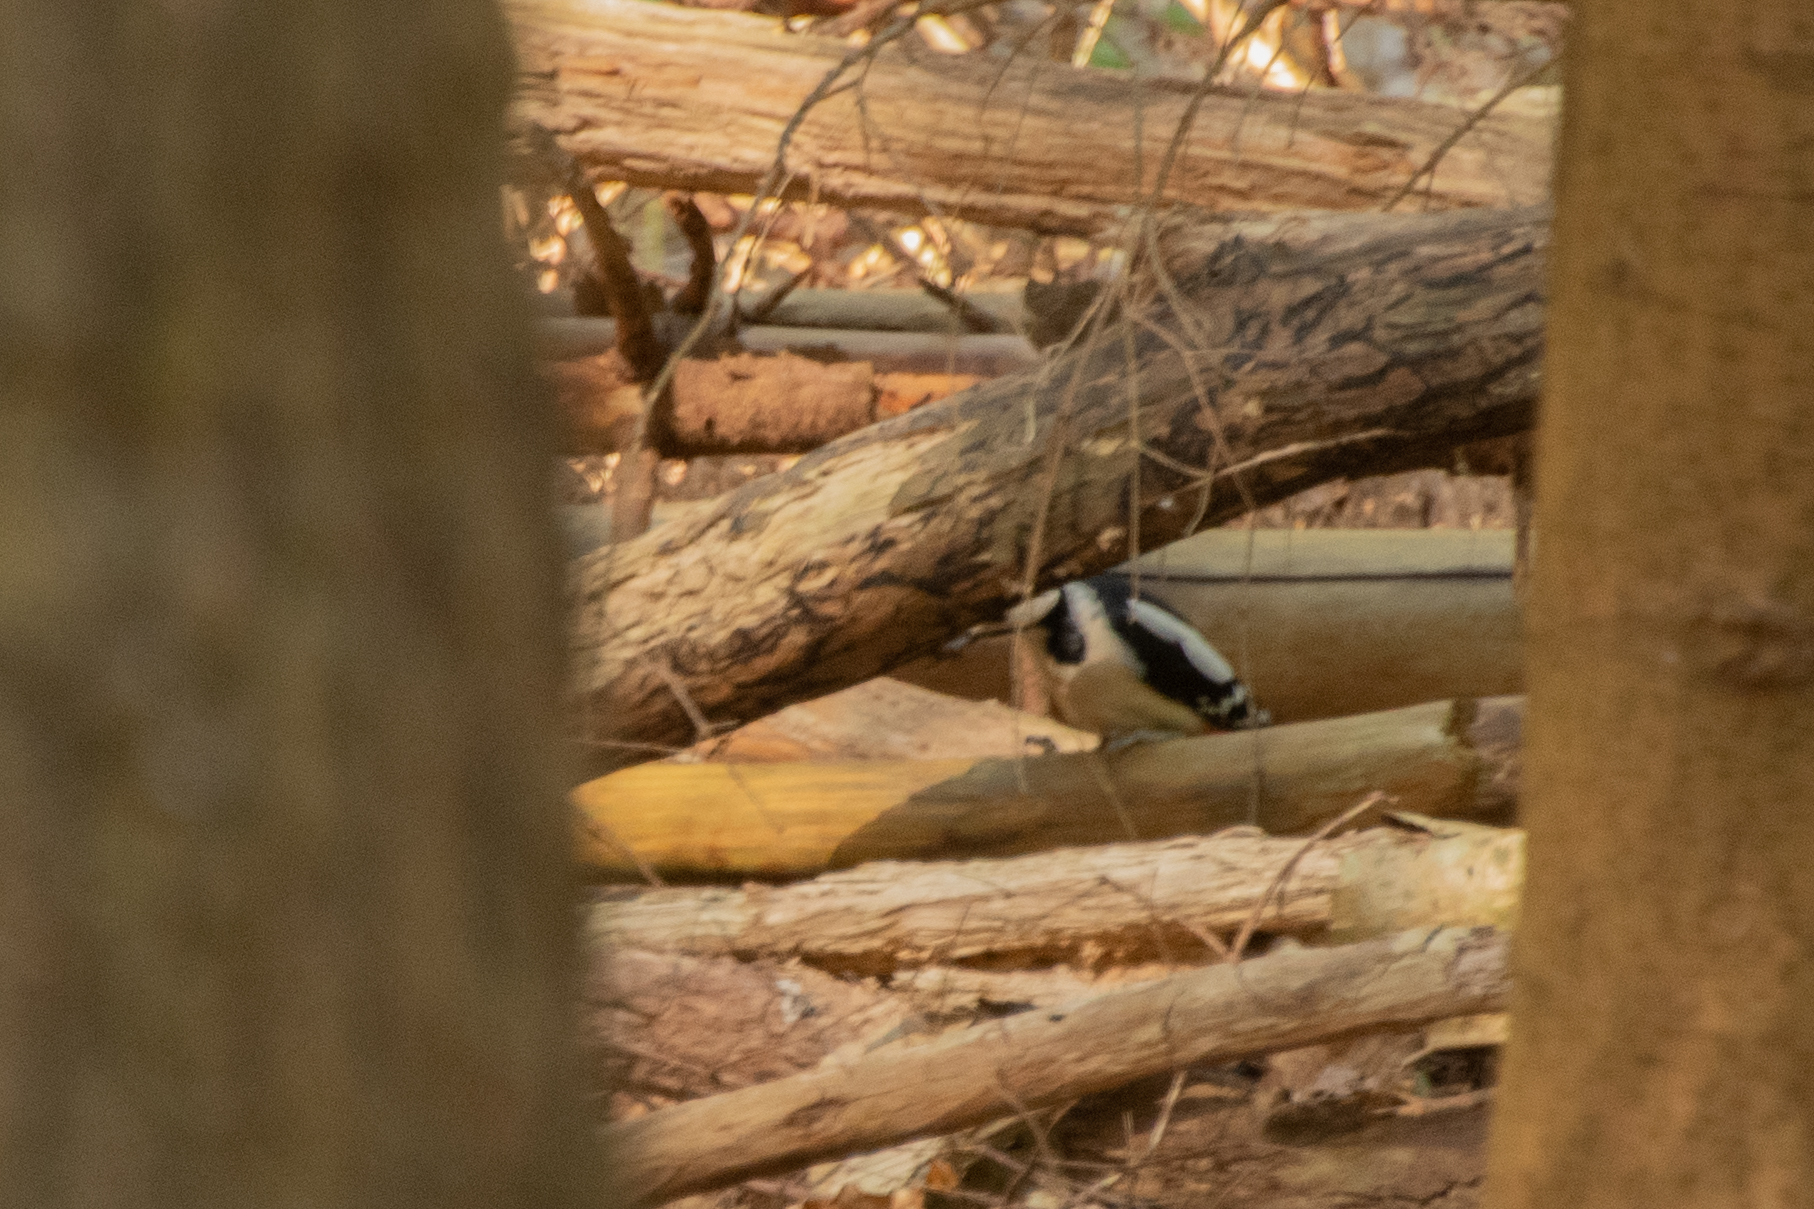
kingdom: Animalia
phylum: Chordata
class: Aves
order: Piciformes
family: Picidae
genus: Dendrocopos
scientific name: Dendrocopos major
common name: Great spotted woodpecker
